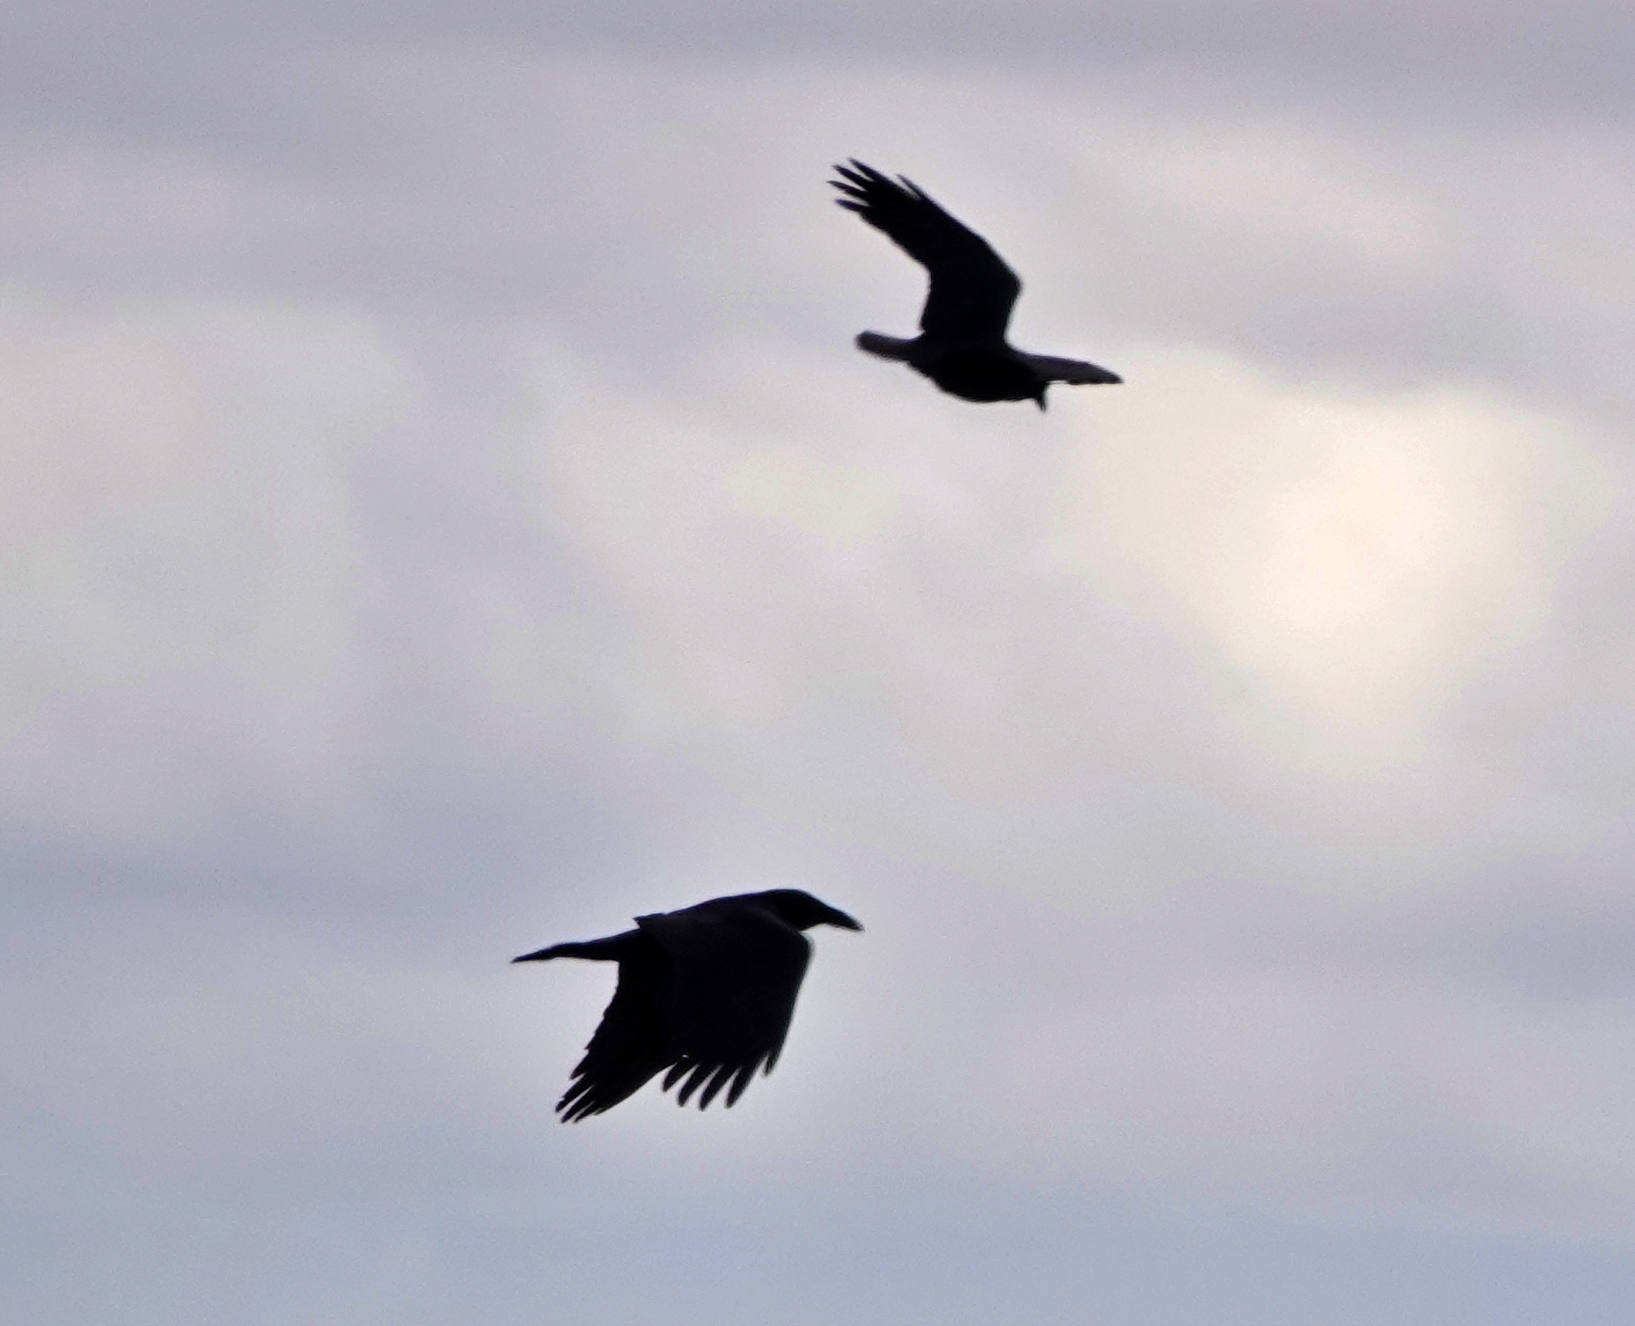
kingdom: Animalia
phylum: Chordata
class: Aves
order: Passeriformes
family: Corvidae
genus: Corvus
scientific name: Corvus corax
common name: Common raven
